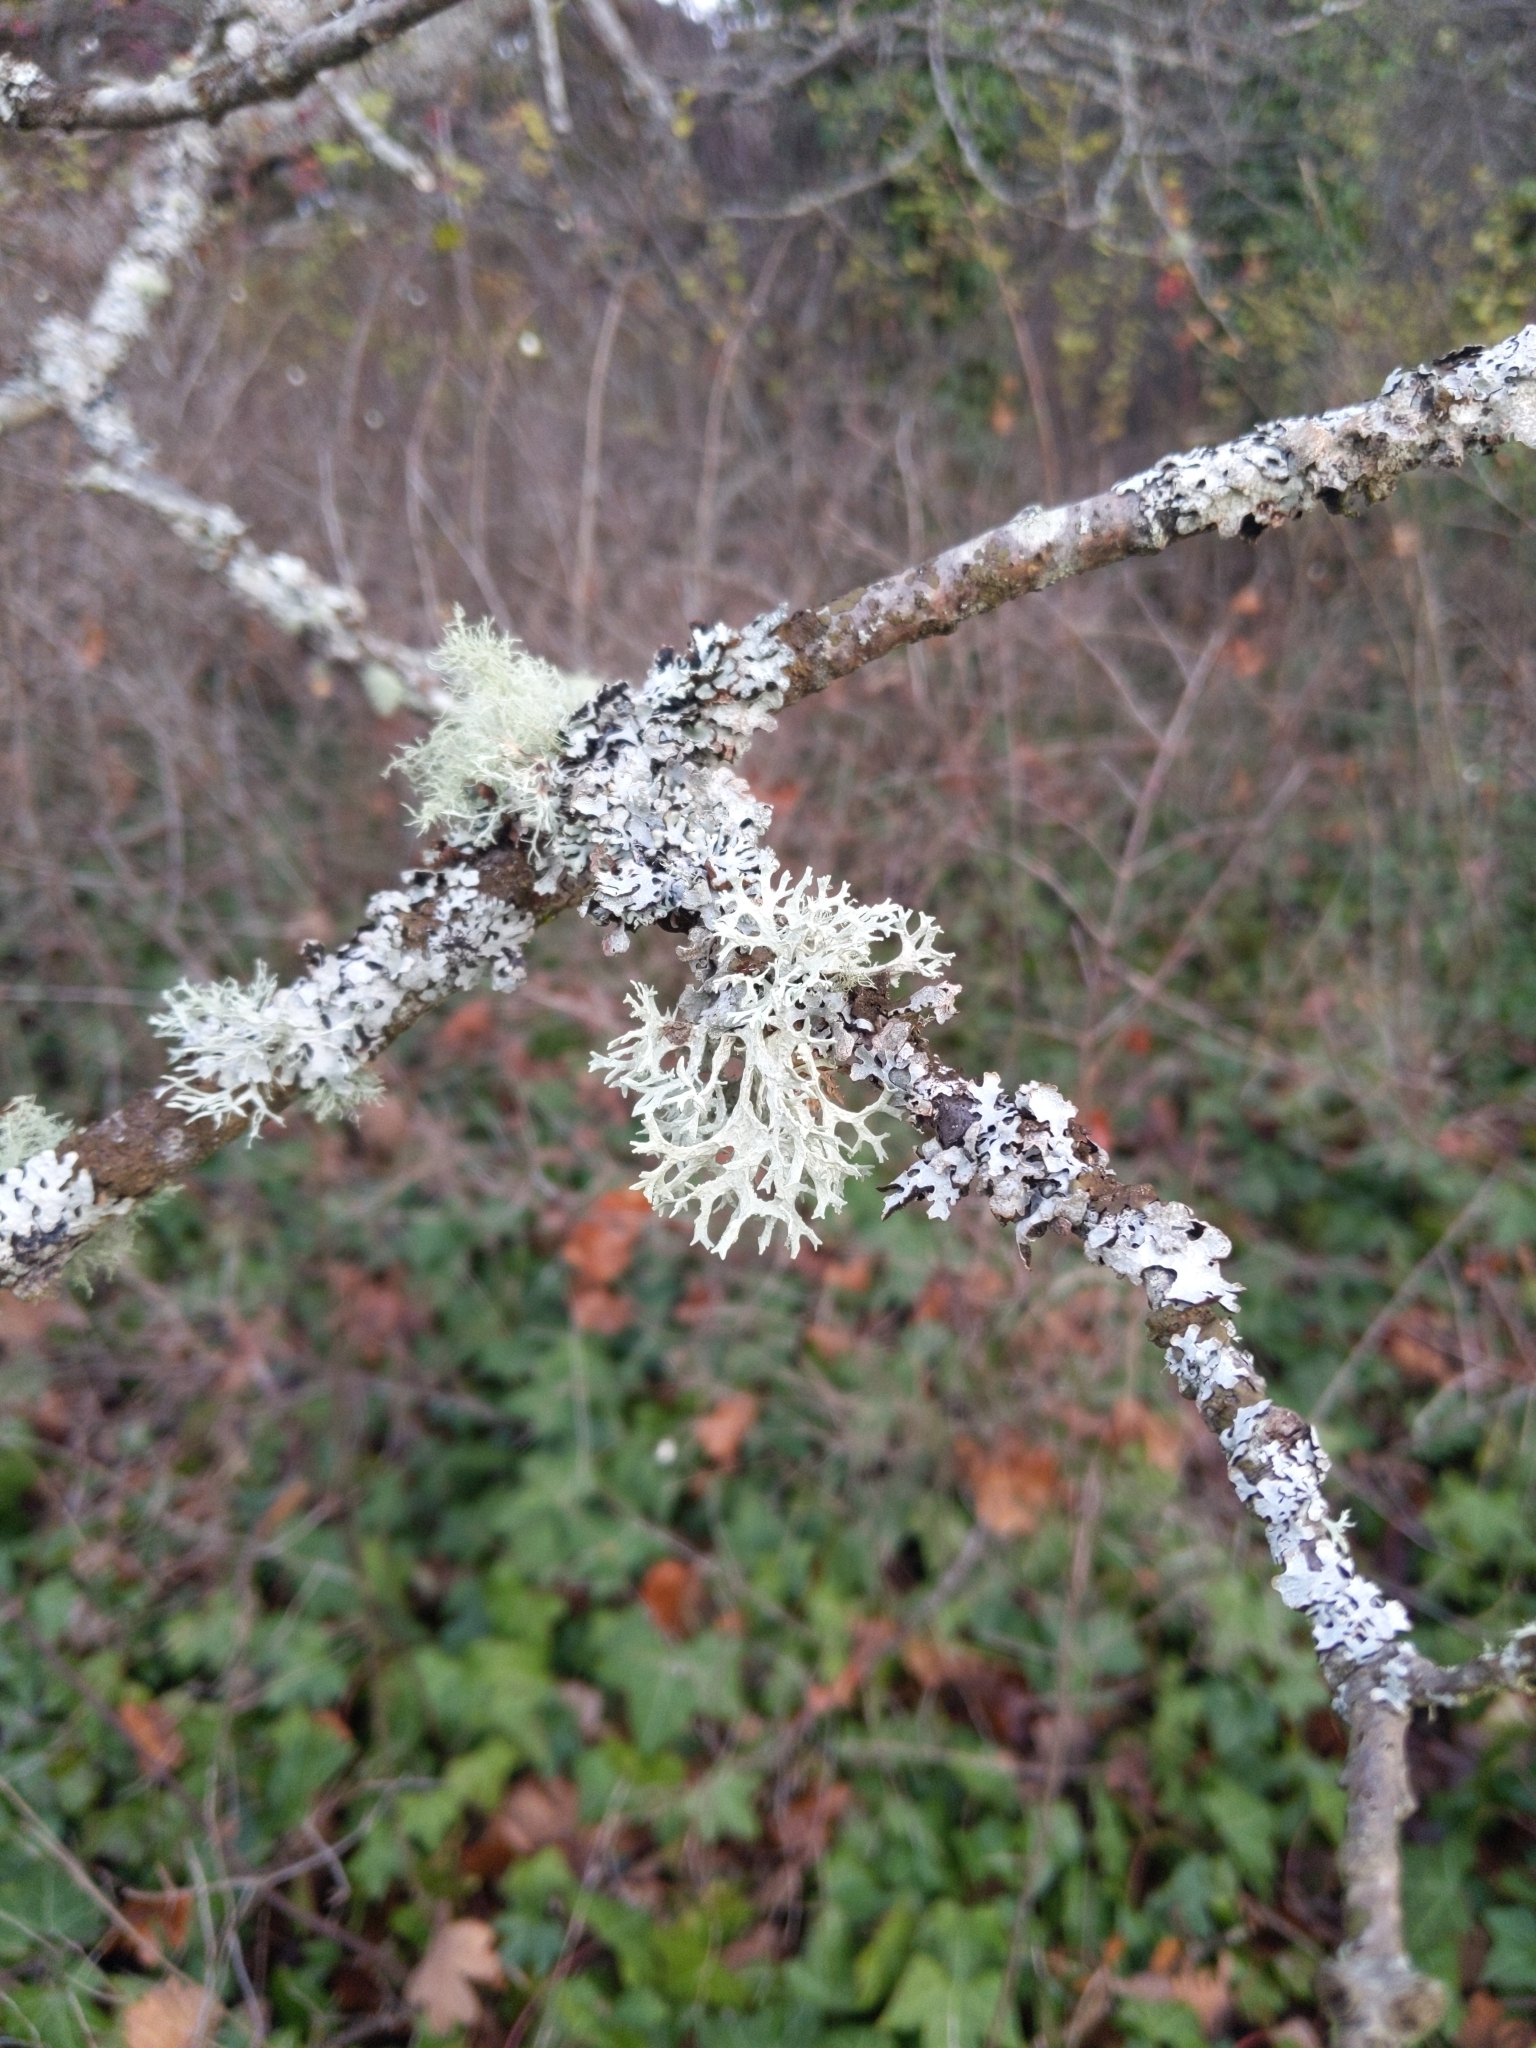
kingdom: Fungi
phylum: Ascomycota
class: Lecanoromycetes
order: Lecanorales
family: Parmeliaceae
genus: Evernia
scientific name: Evernia prunastri
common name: Oak moss
